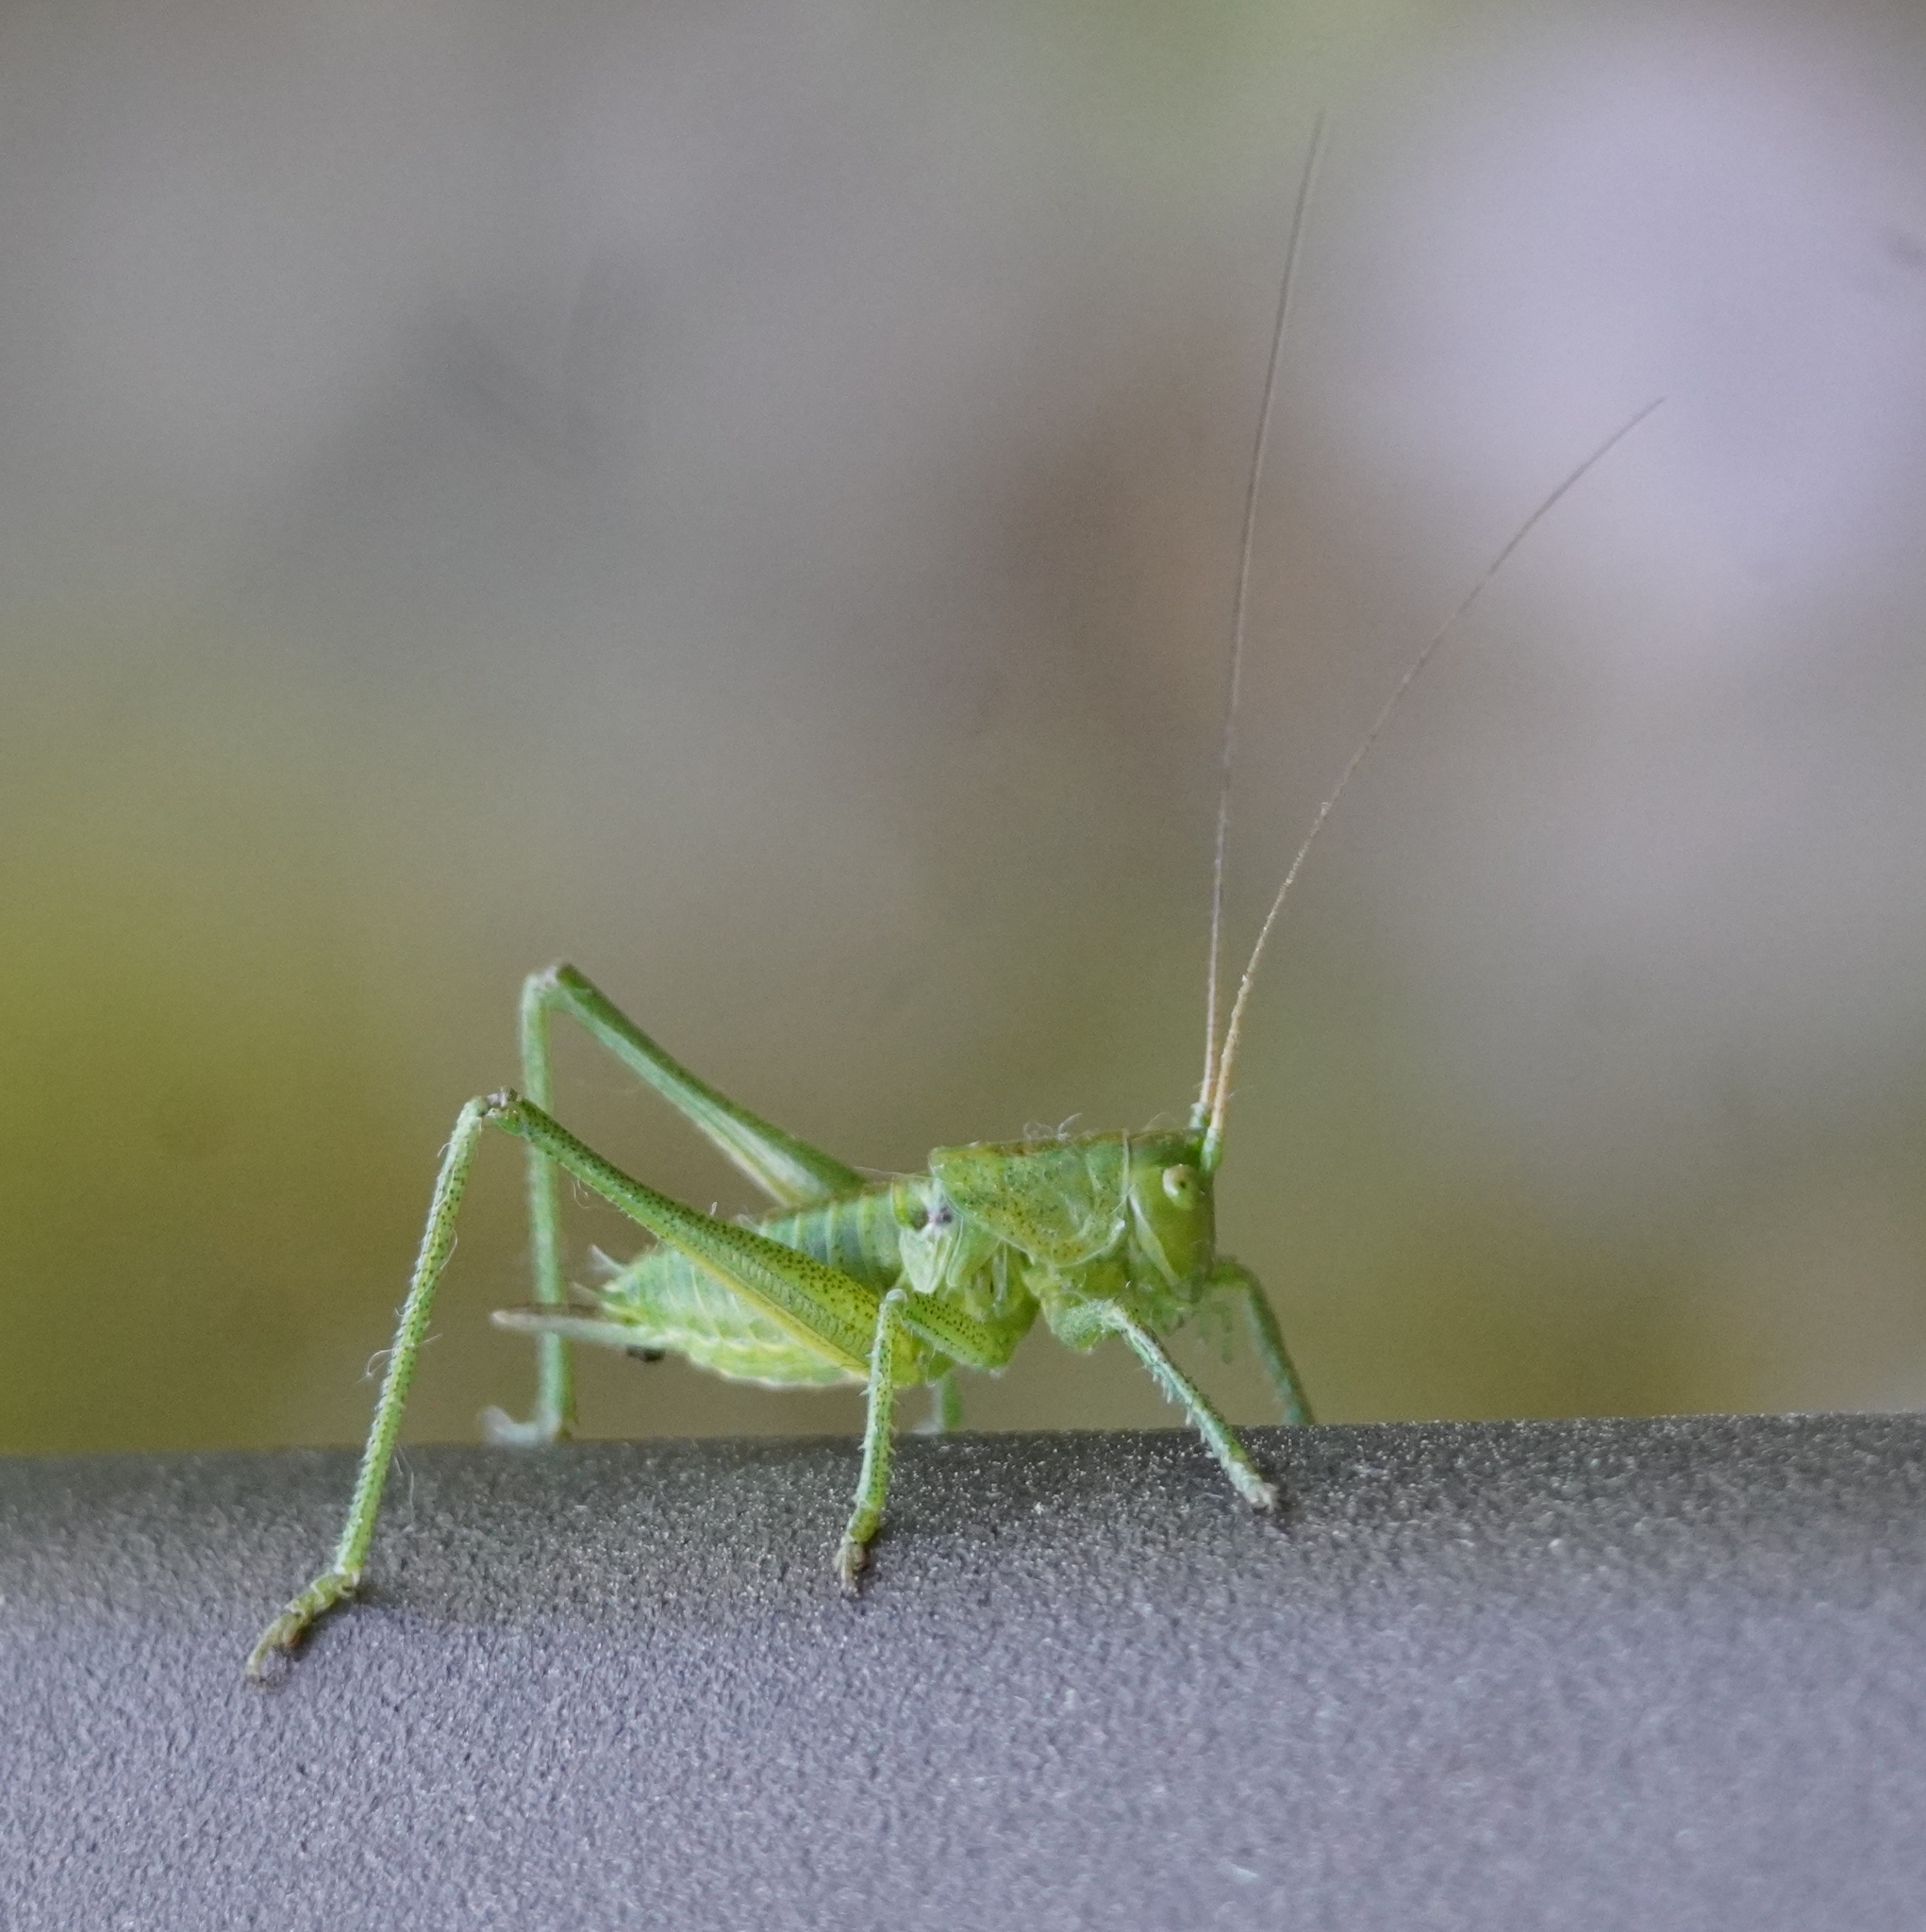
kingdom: Animalia
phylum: Arthropoda
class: Insecta
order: Orthoptera
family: Tettigoniidae
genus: Tettigonia
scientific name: Tettigonia viridissima
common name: Great green bush-cricket
